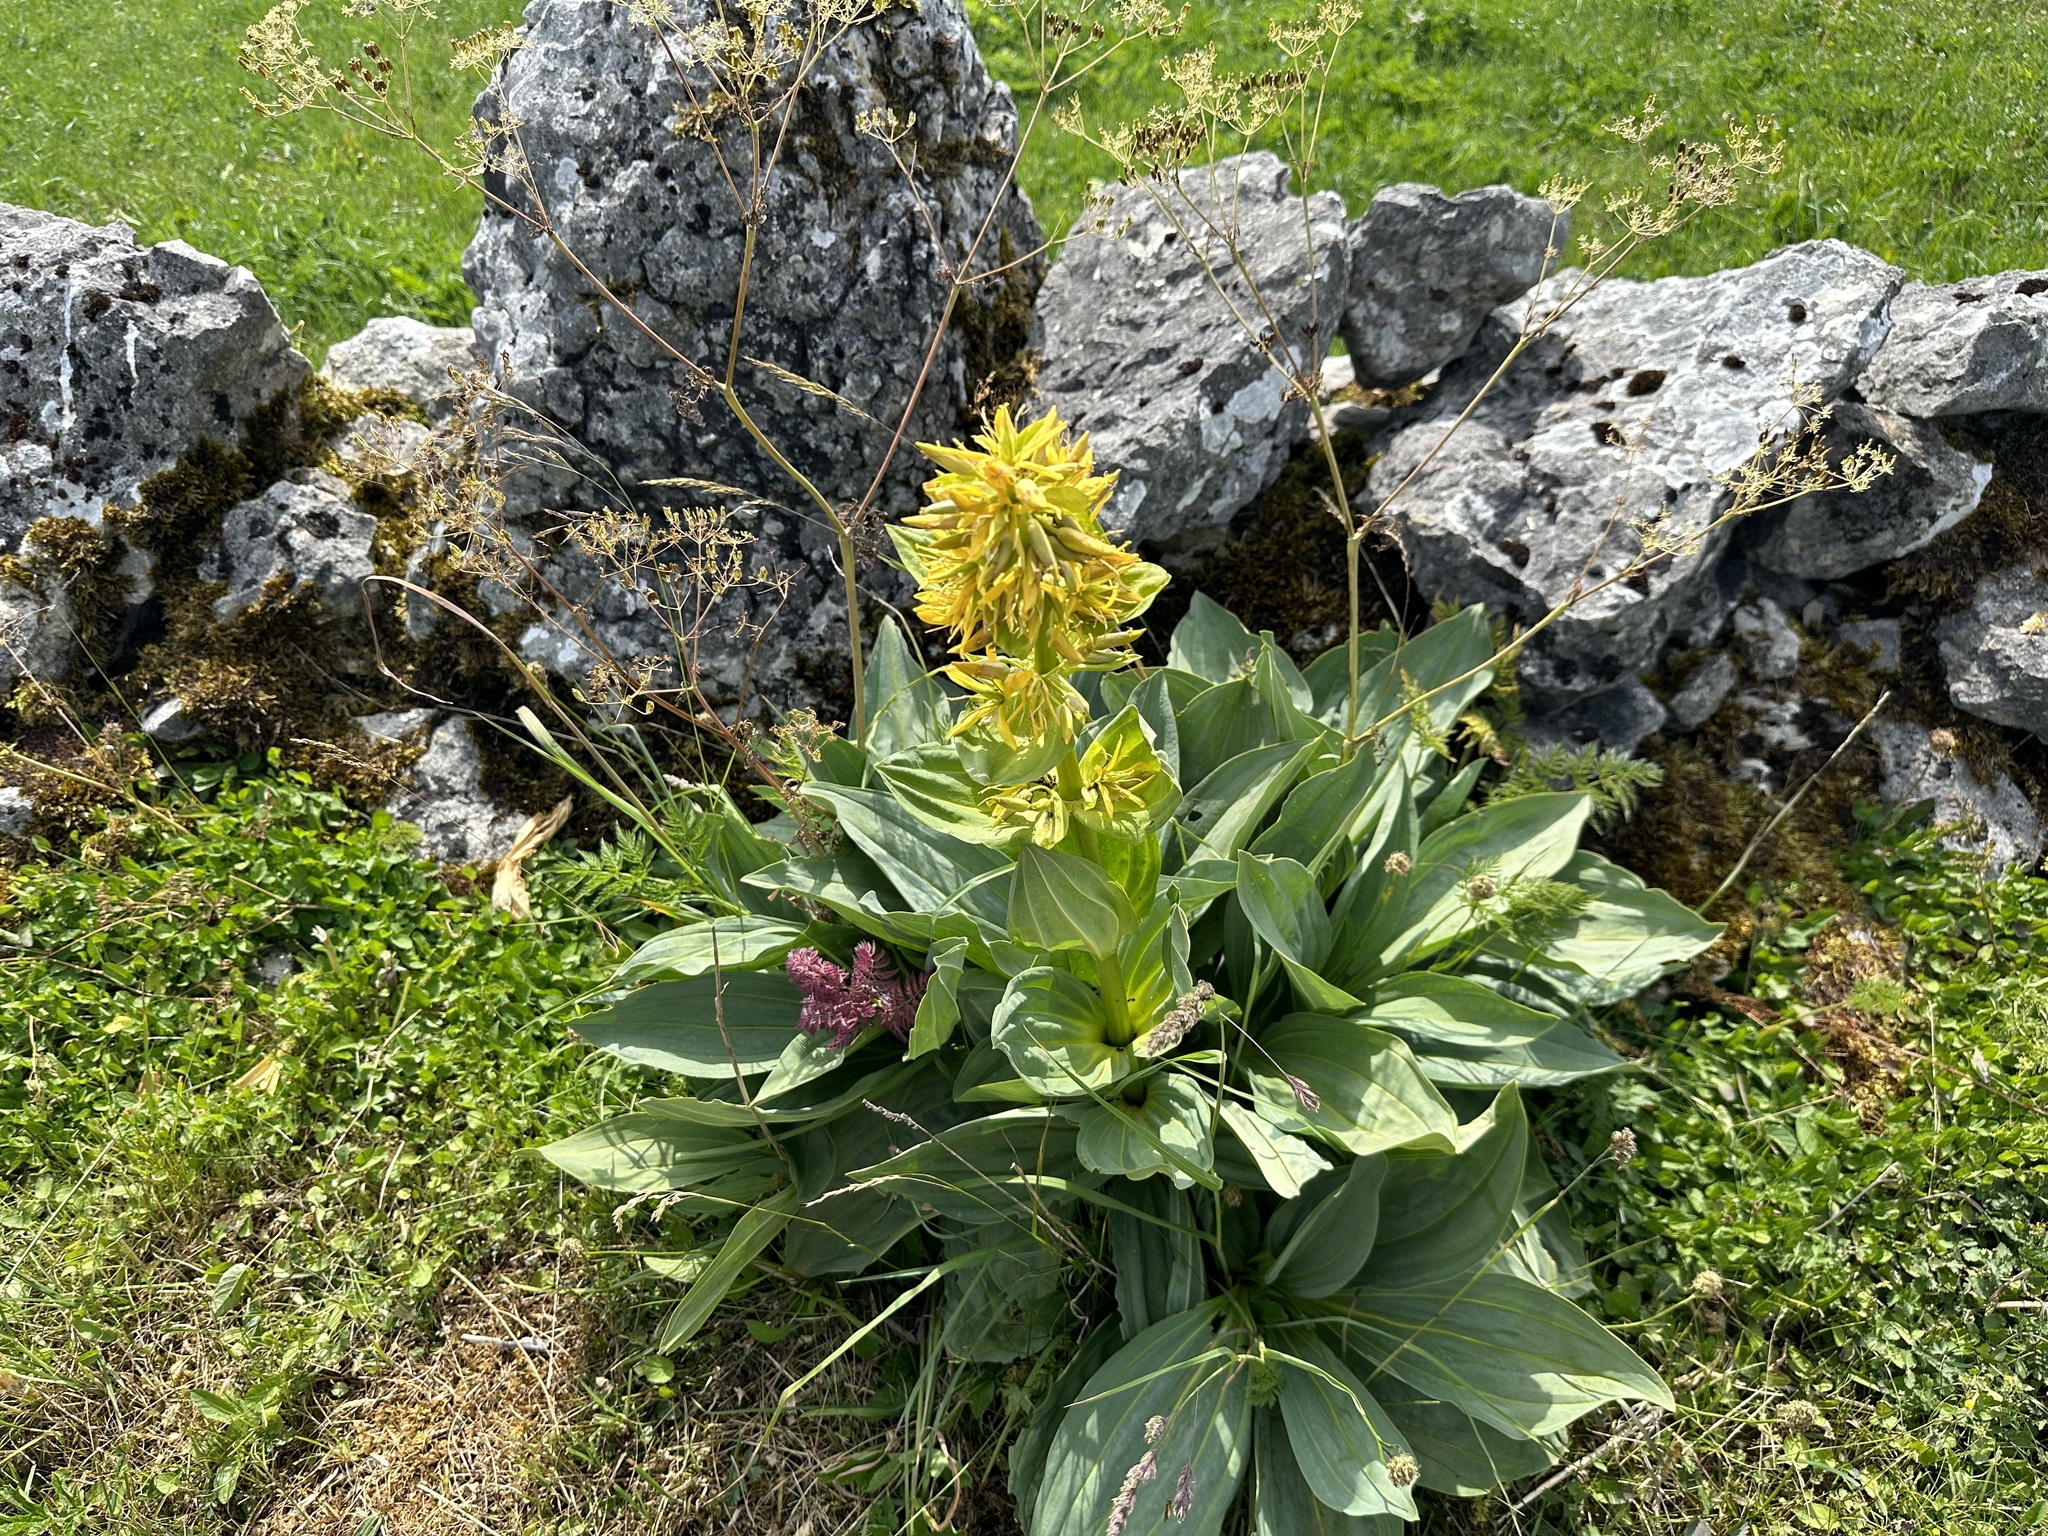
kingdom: Plantae
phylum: Tracheophyta
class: Magnoliopsida
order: Gentianales
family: Gentianaceae
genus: Gentiana
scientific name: Gentiana lutea
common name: Great yellow gentian
